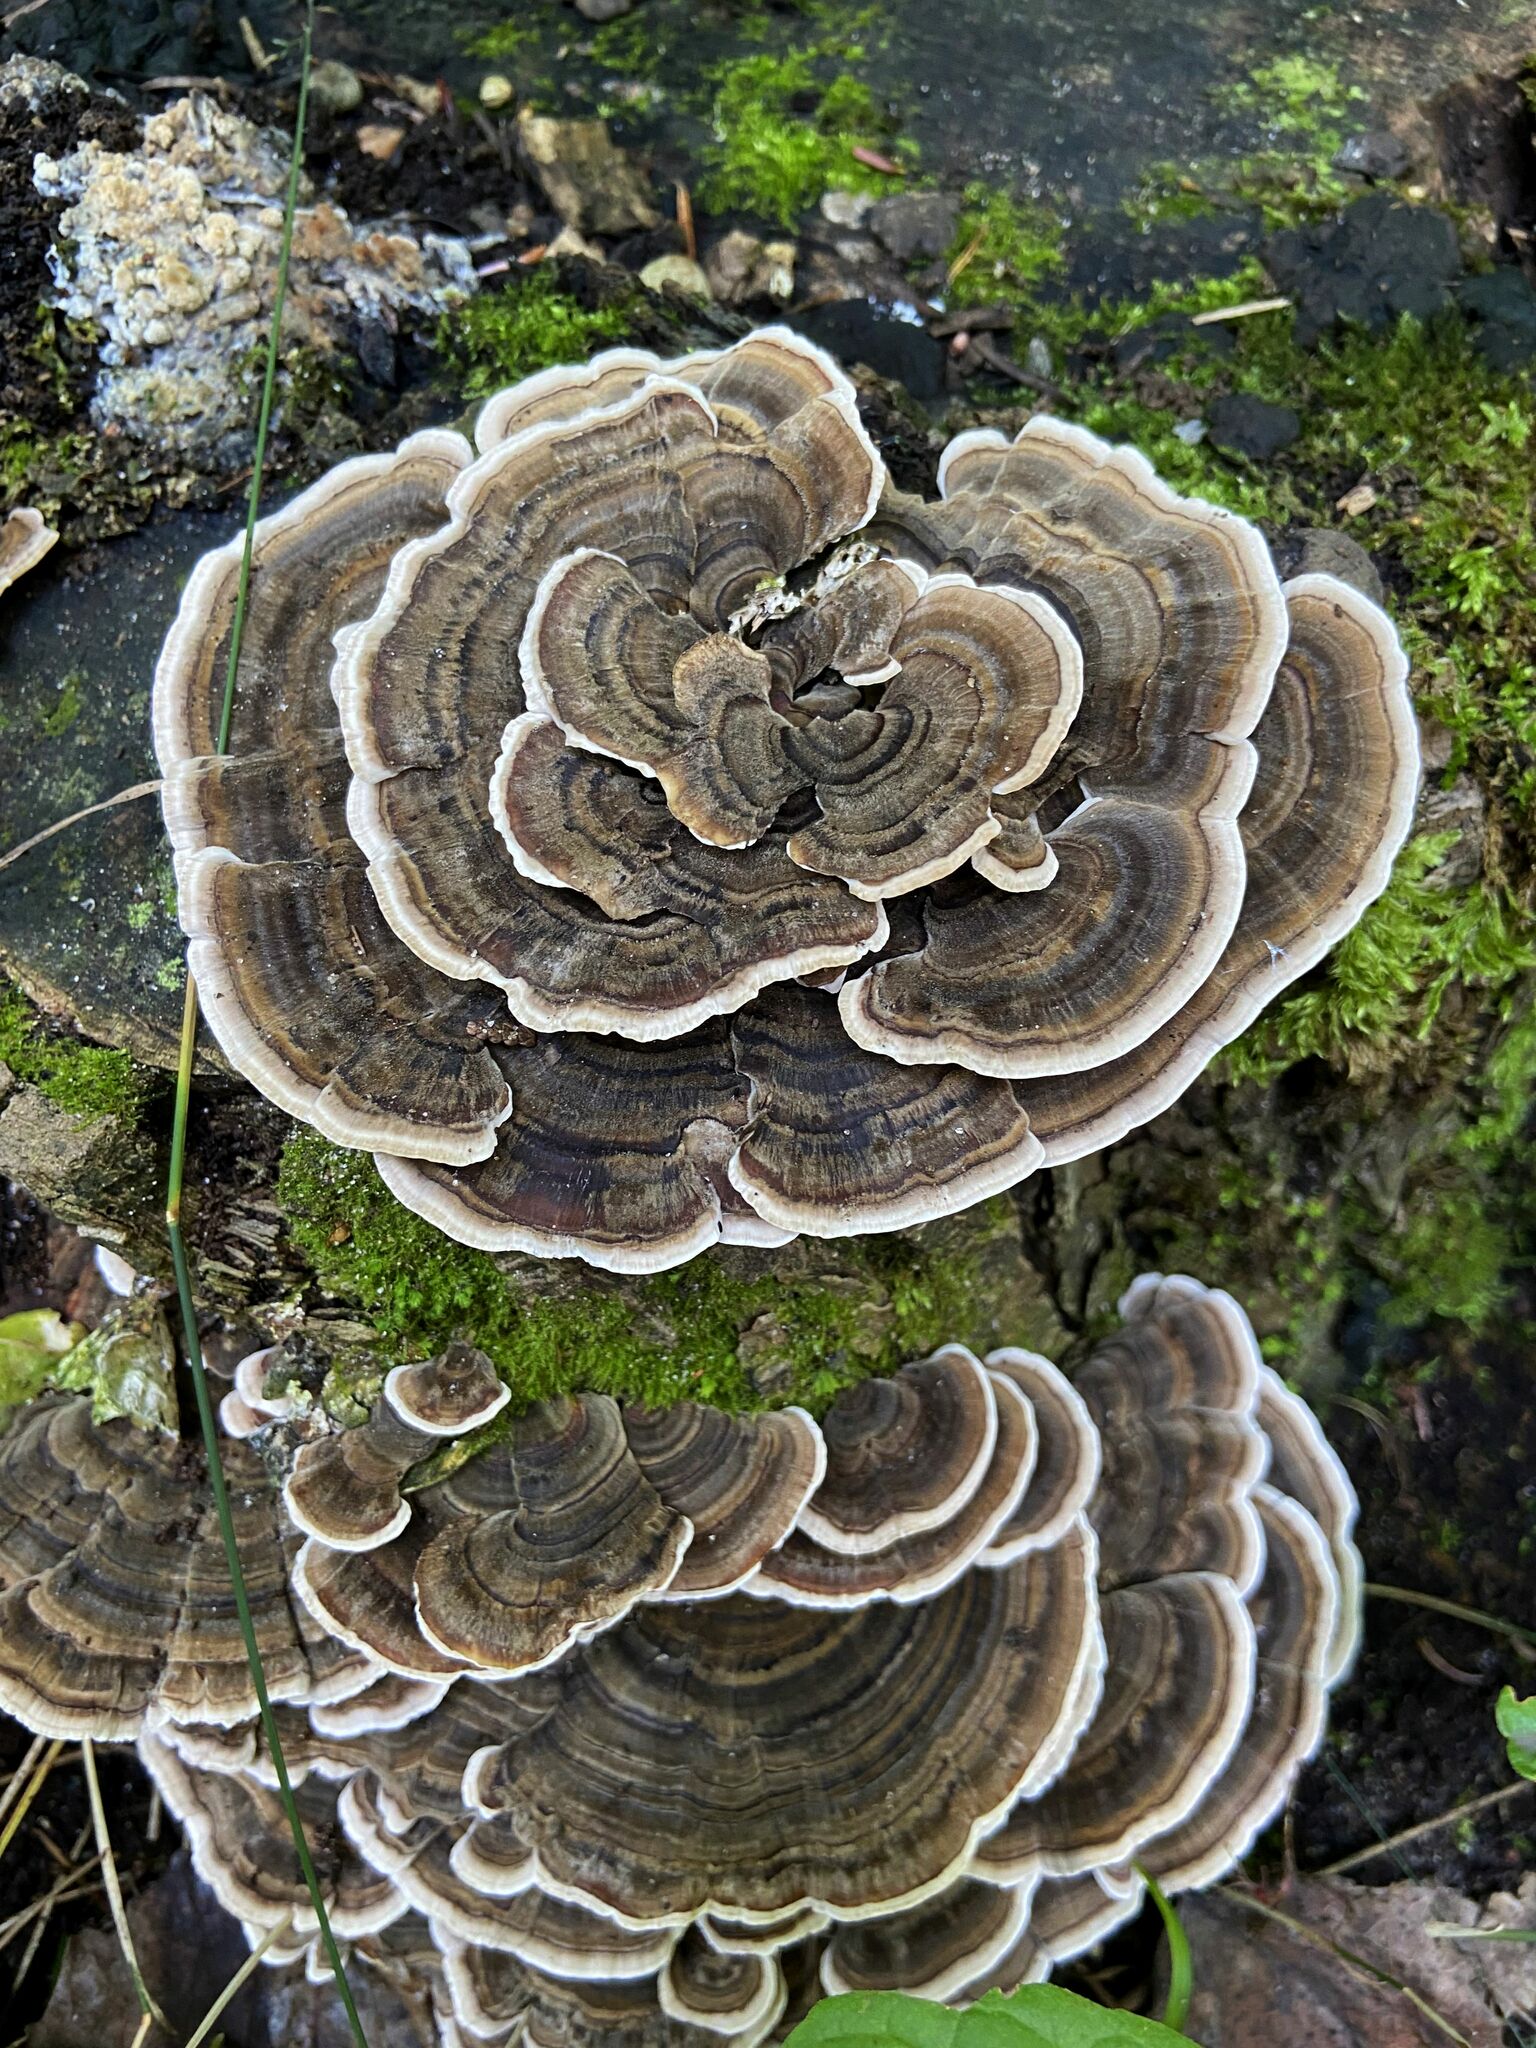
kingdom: Fungi
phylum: Basidiomycota
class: Agaricomycetes
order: Polyporales
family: Polyporaceae
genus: Trametes
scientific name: Trametes versicolor
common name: Turkeytail
